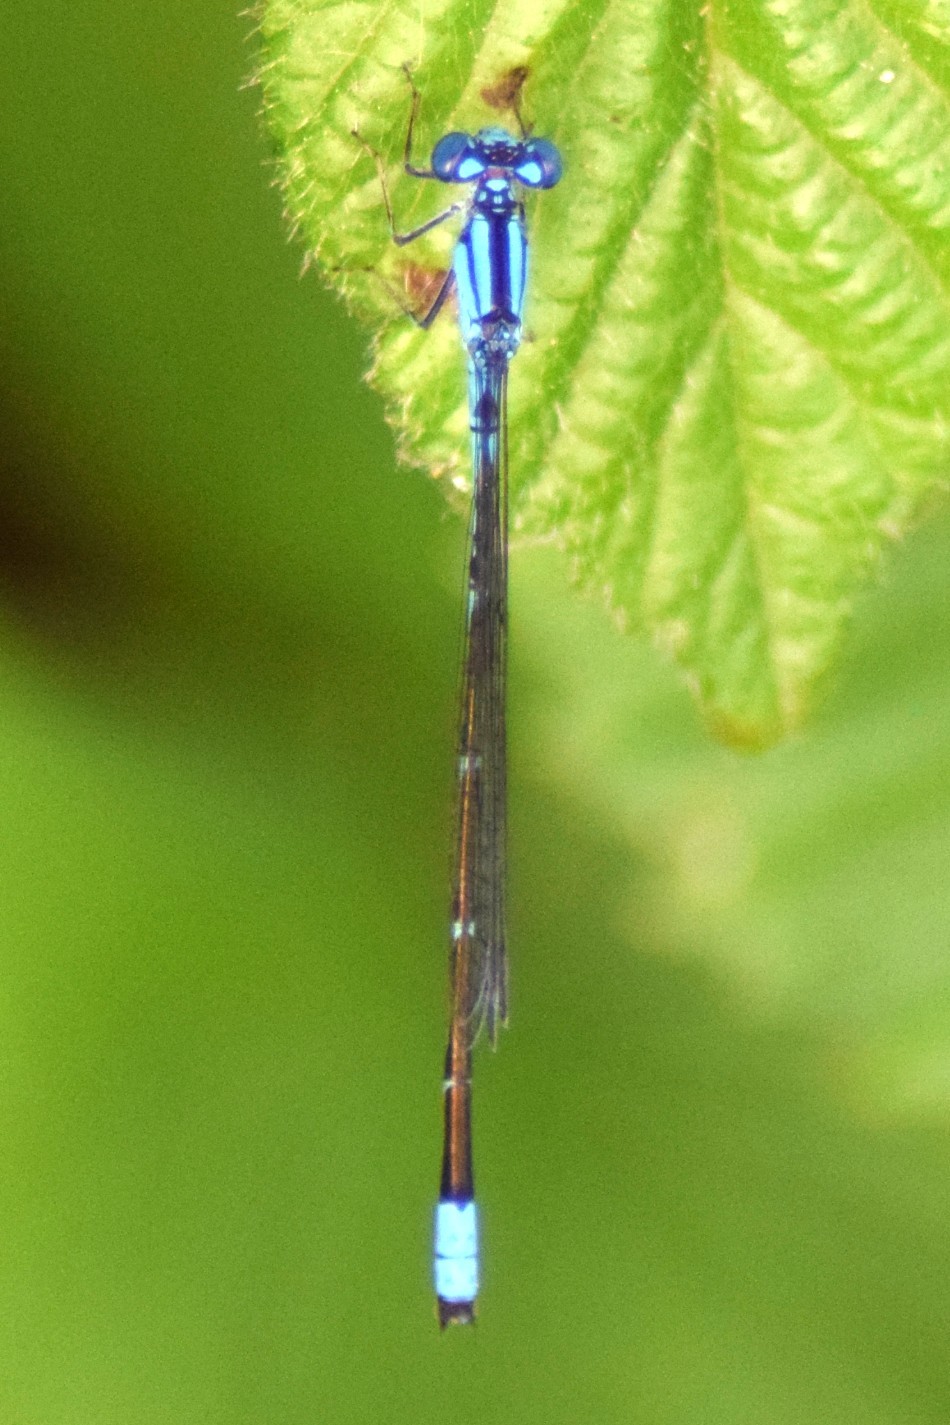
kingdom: Animalia
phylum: Arthropoda
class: Insecta
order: Odonata
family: Coenagrionidae
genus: Enallagma
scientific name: Enallagma traviatum
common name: Slender bluet
